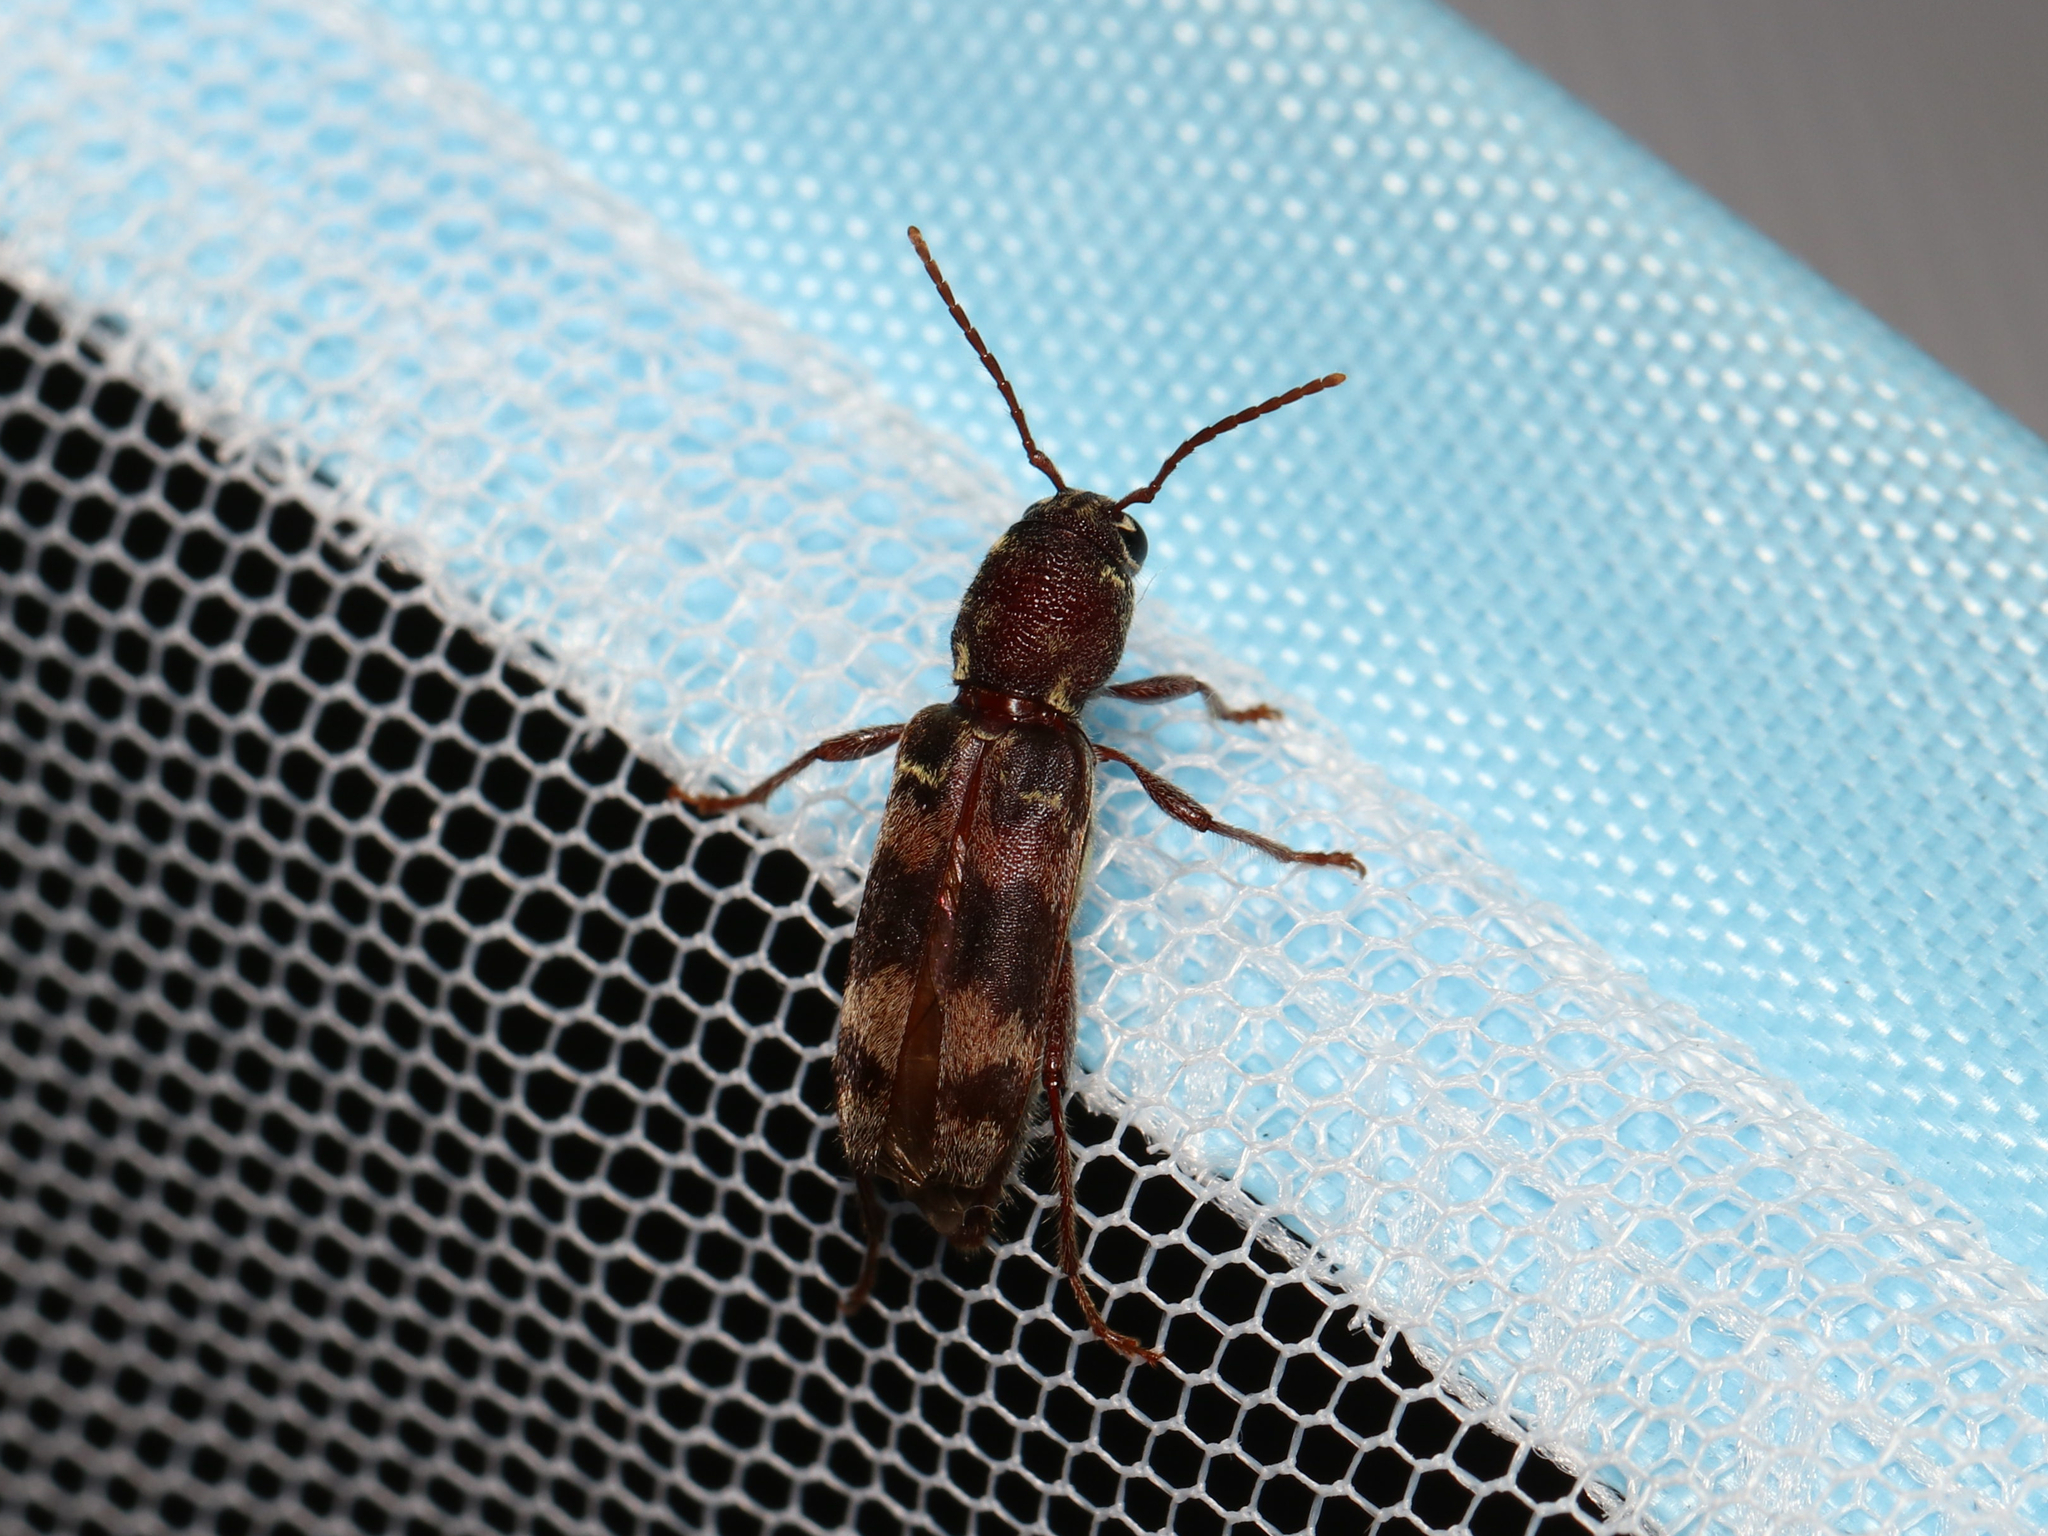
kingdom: Animalia
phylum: Arthropoda
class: Insecta
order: Coleoptera
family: Cerambycidae
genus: Xylotrechus
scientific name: Xylotrechus colonus
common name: Long-horned beetle
